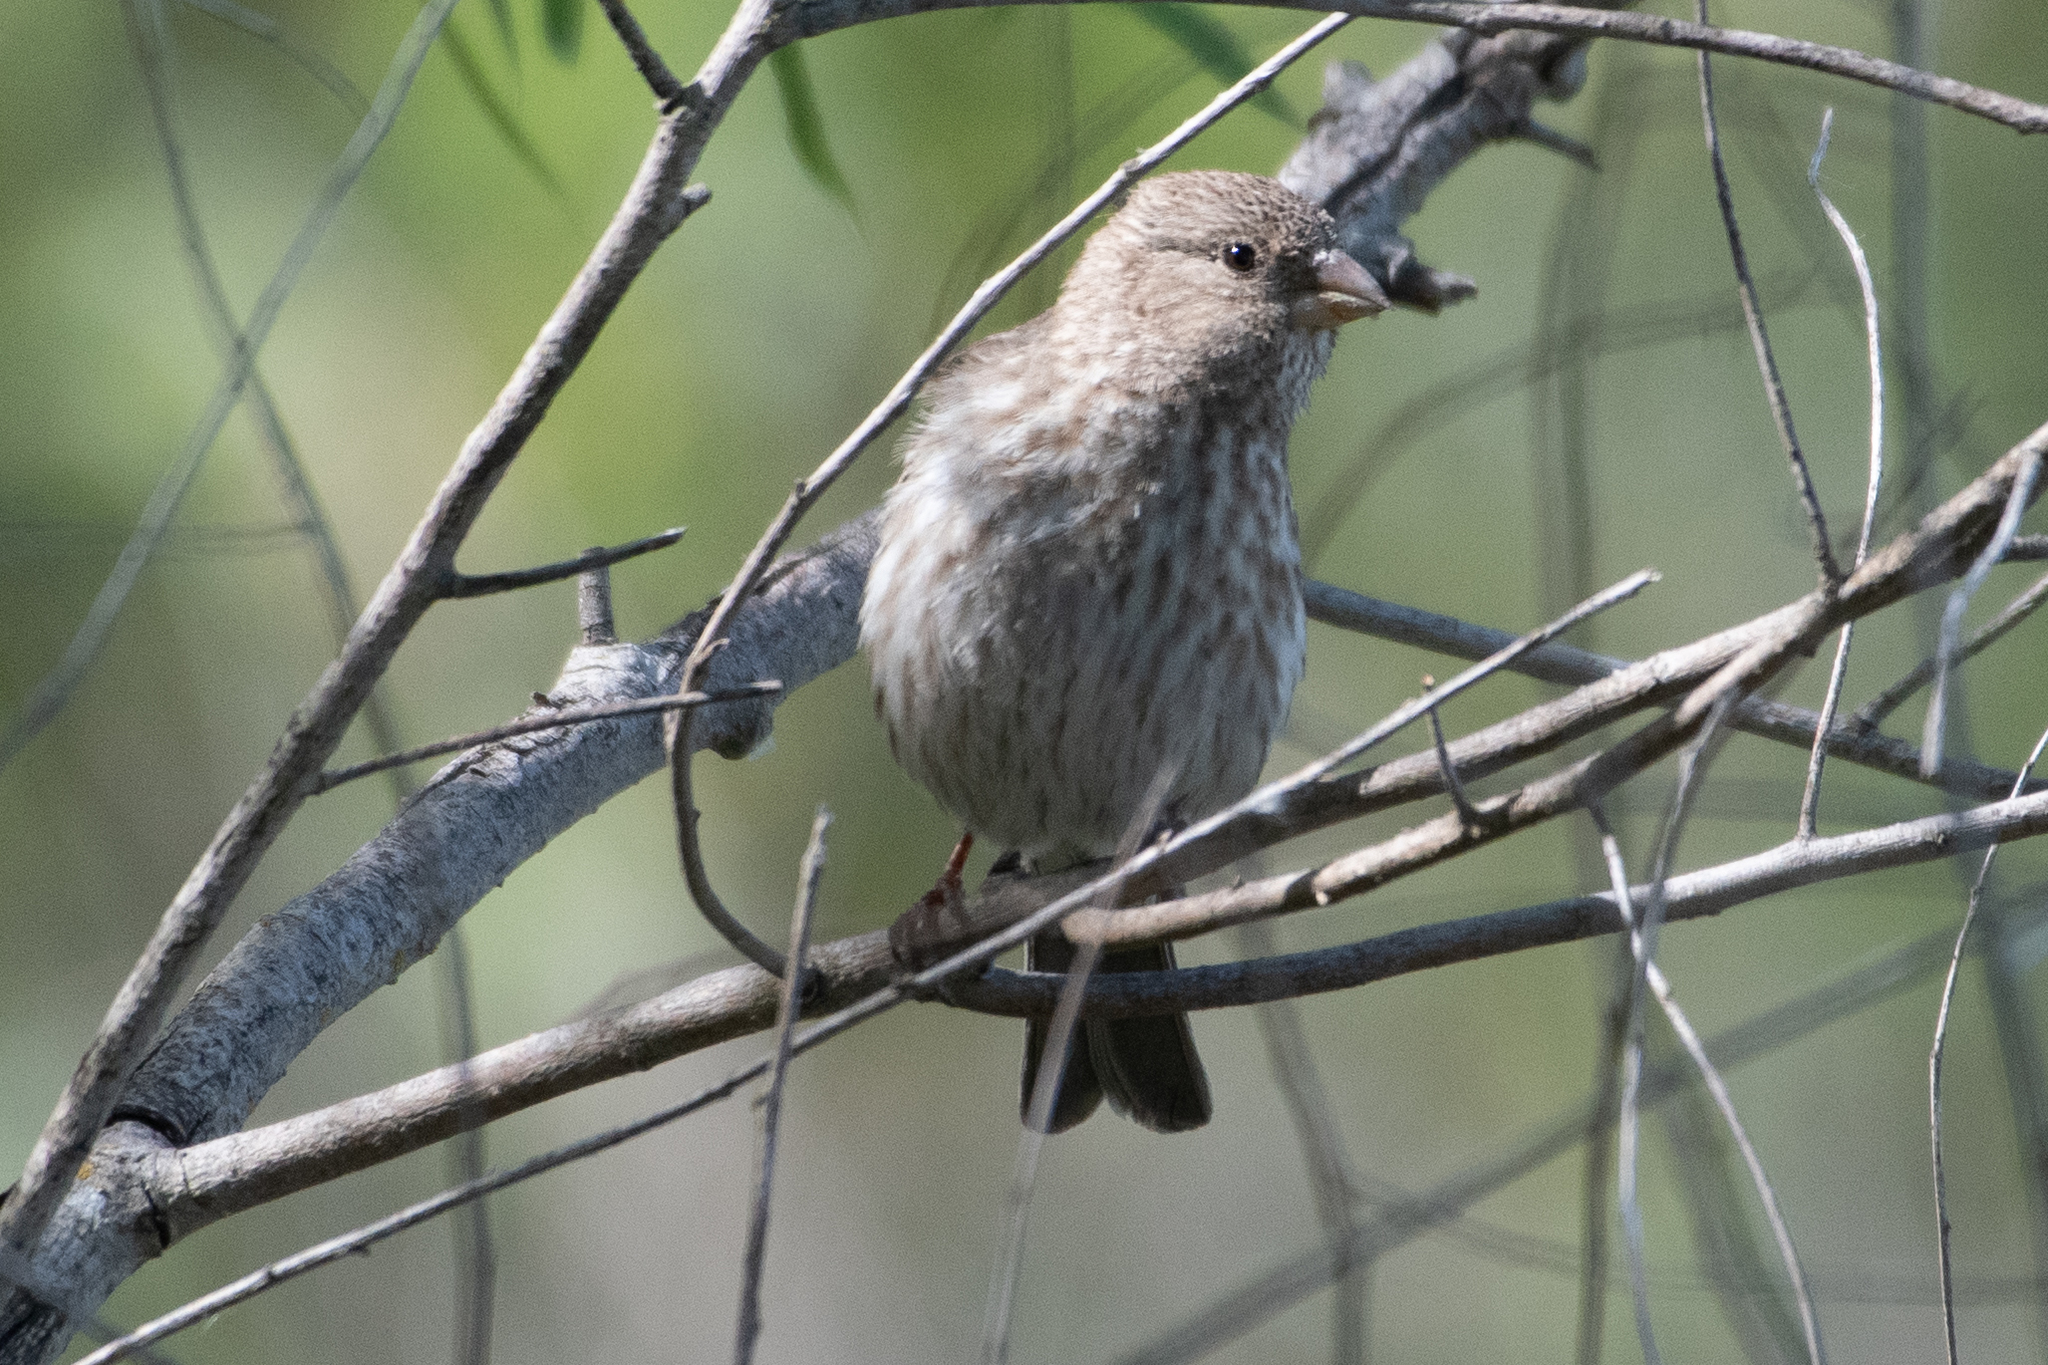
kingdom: Animalia
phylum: Chordata
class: Aves
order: Passeriformes
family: Fringillidae
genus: Haemorhous
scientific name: Haemorhous mexicanus
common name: House finch
